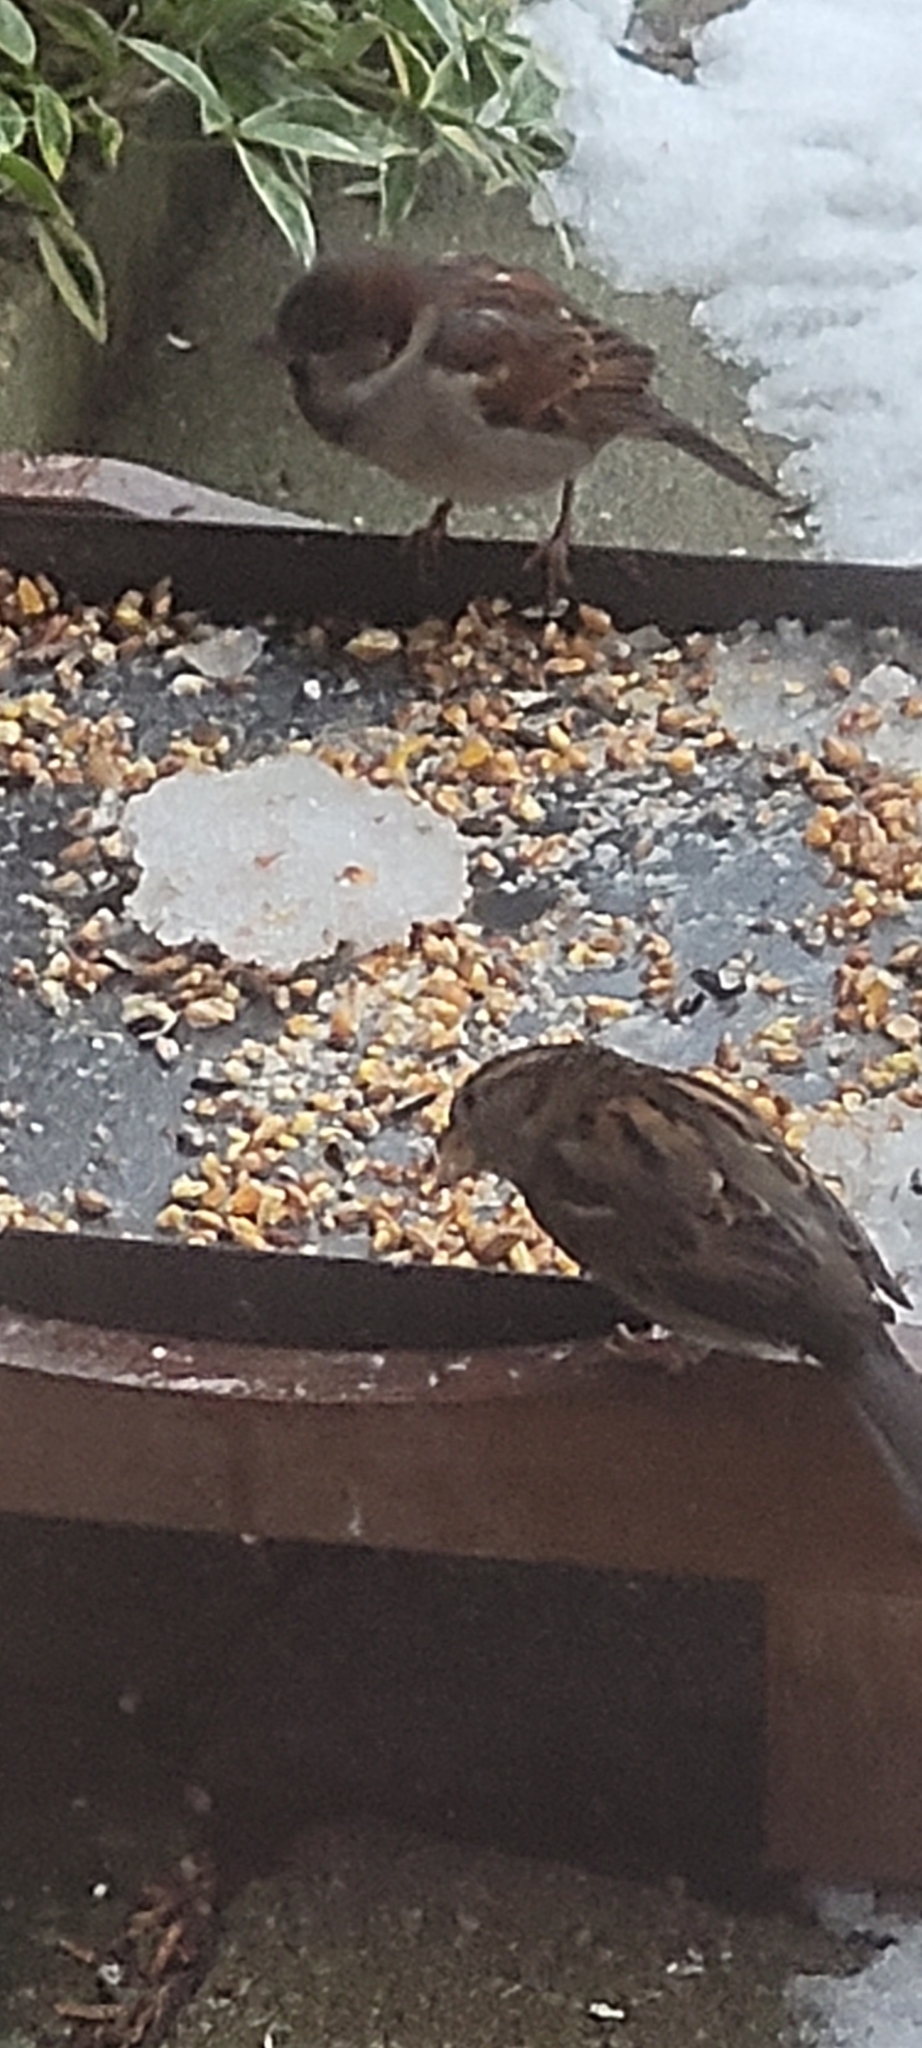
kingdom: Animalia
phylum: Chordata
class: Aves
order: Passeriformes
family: Passeridae
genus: Passer
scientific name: Passer domesticus
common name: House sparrow
